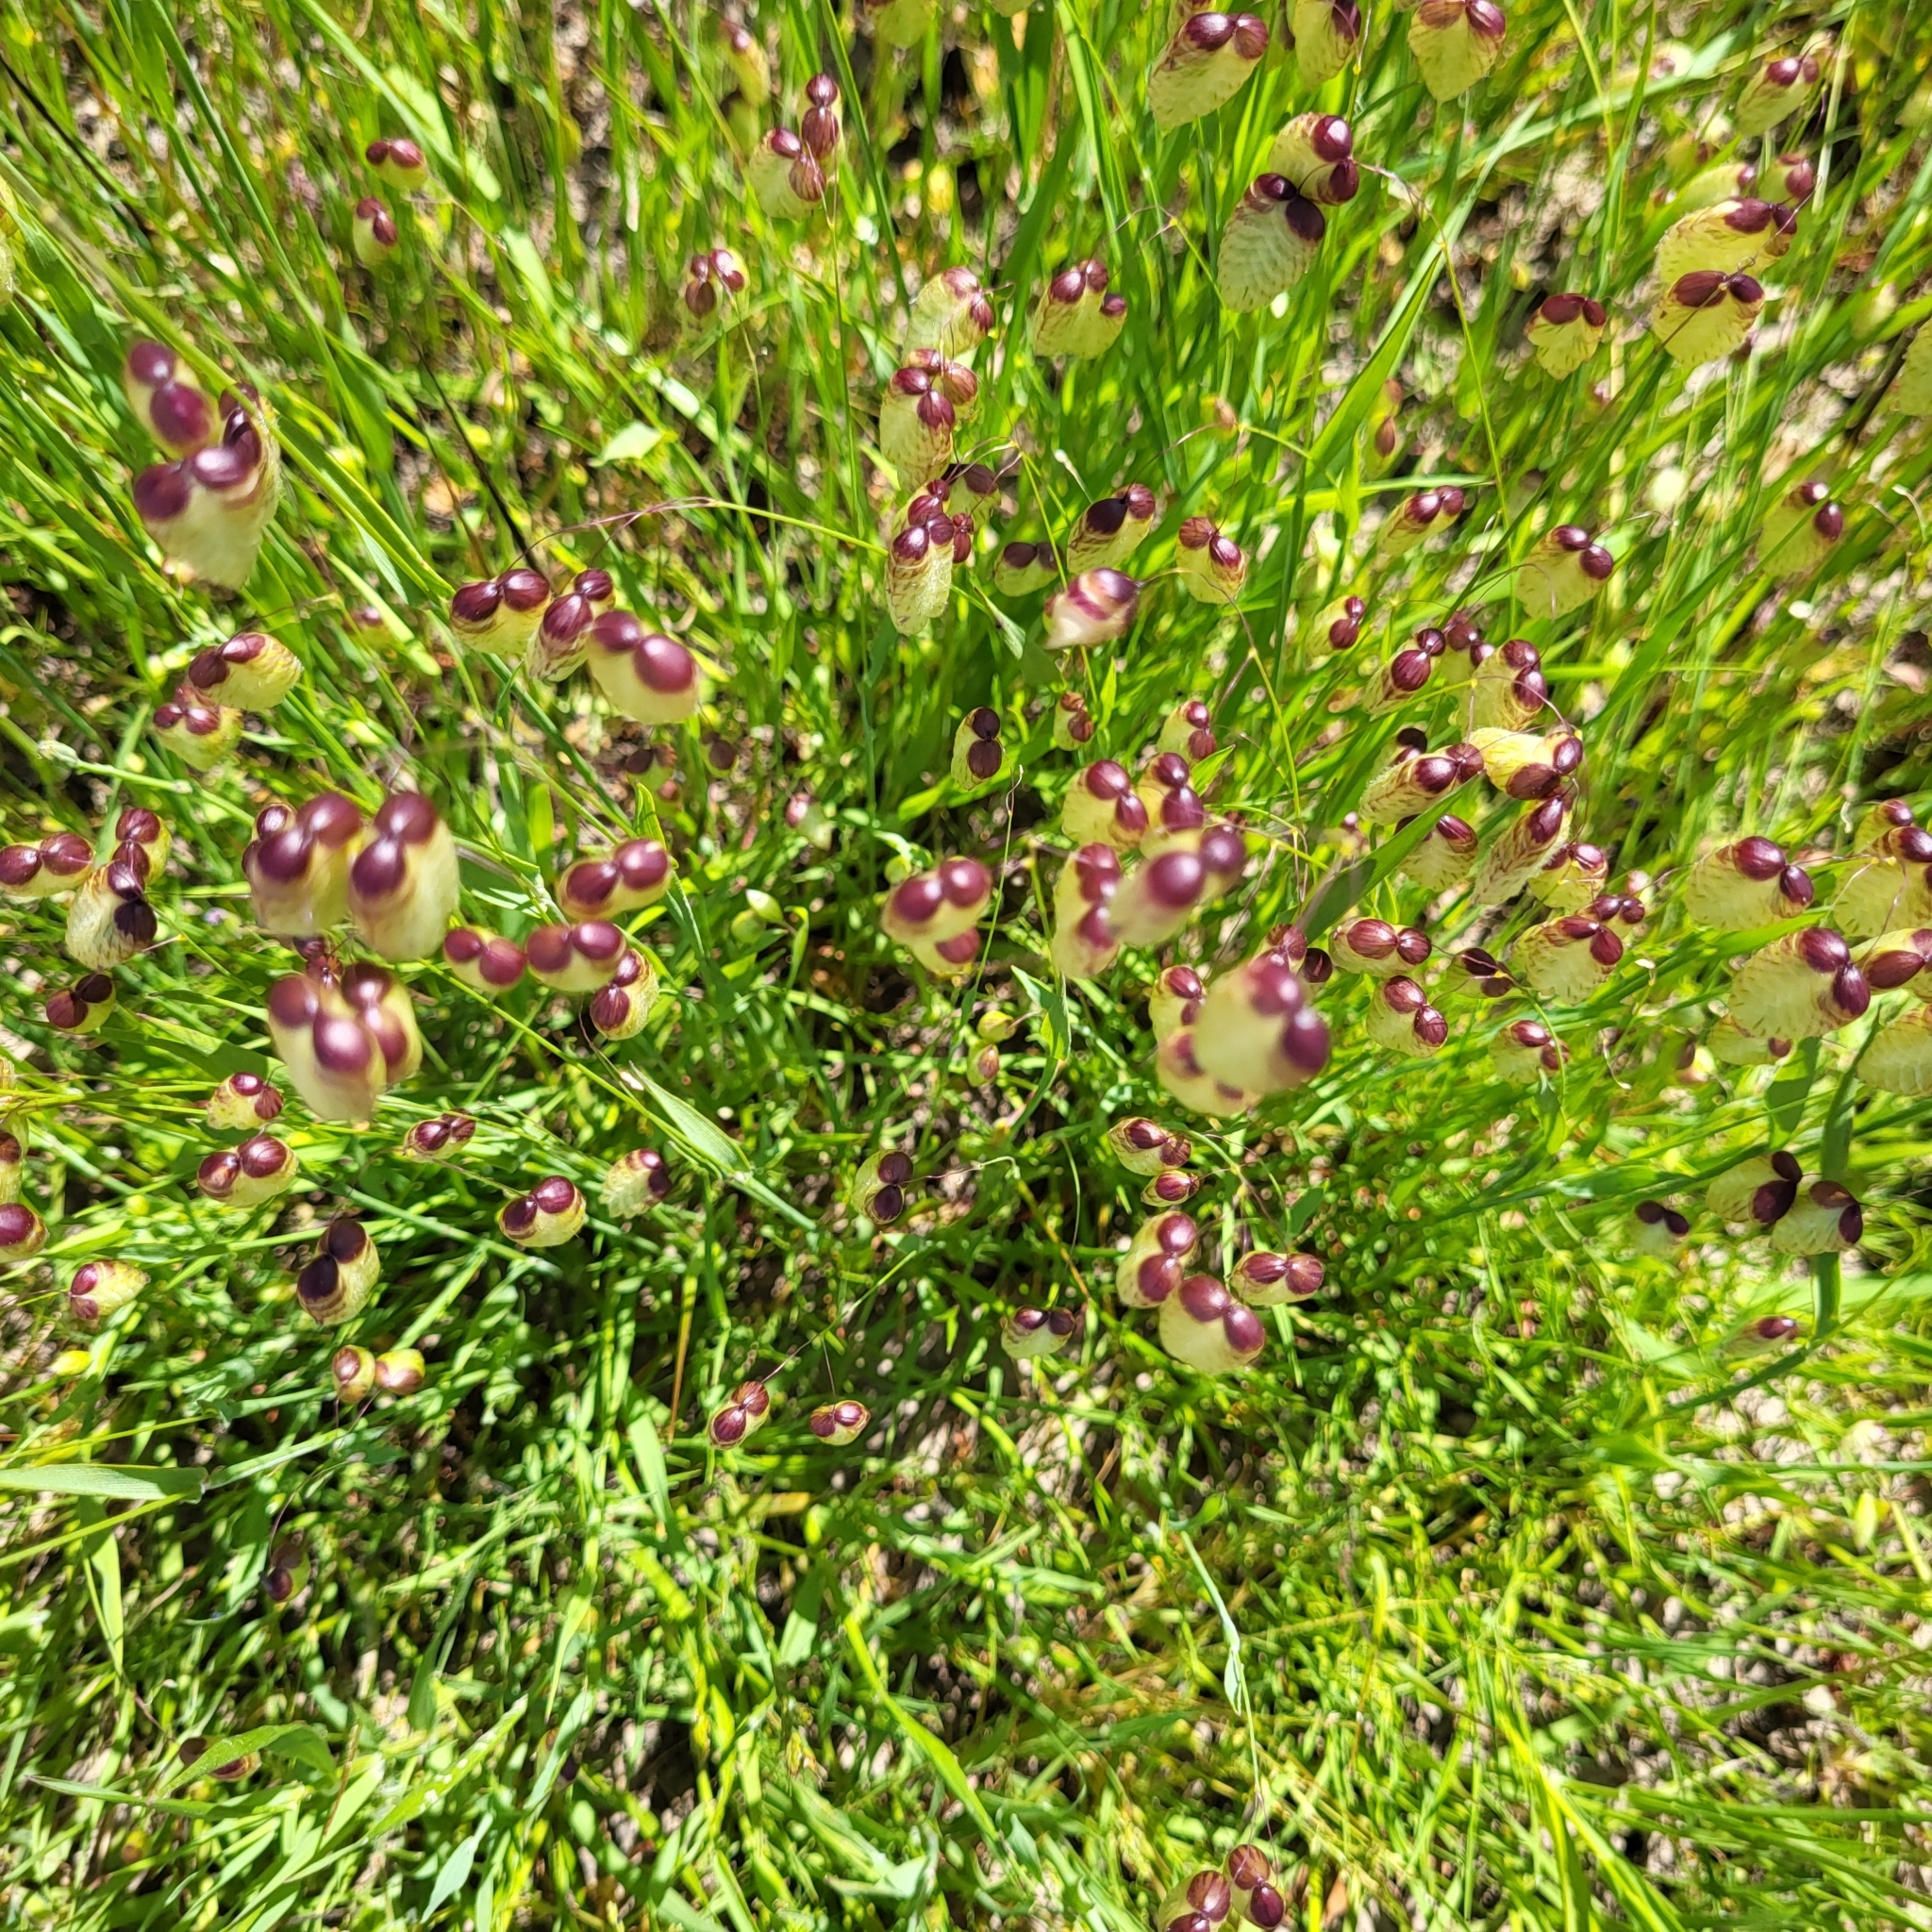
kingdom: Plantae
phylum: Tracheophyta
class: Liliopsida
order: Poales
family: Poaceae
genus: Briza
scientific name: Briza maxima
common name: Big quakinggrass
